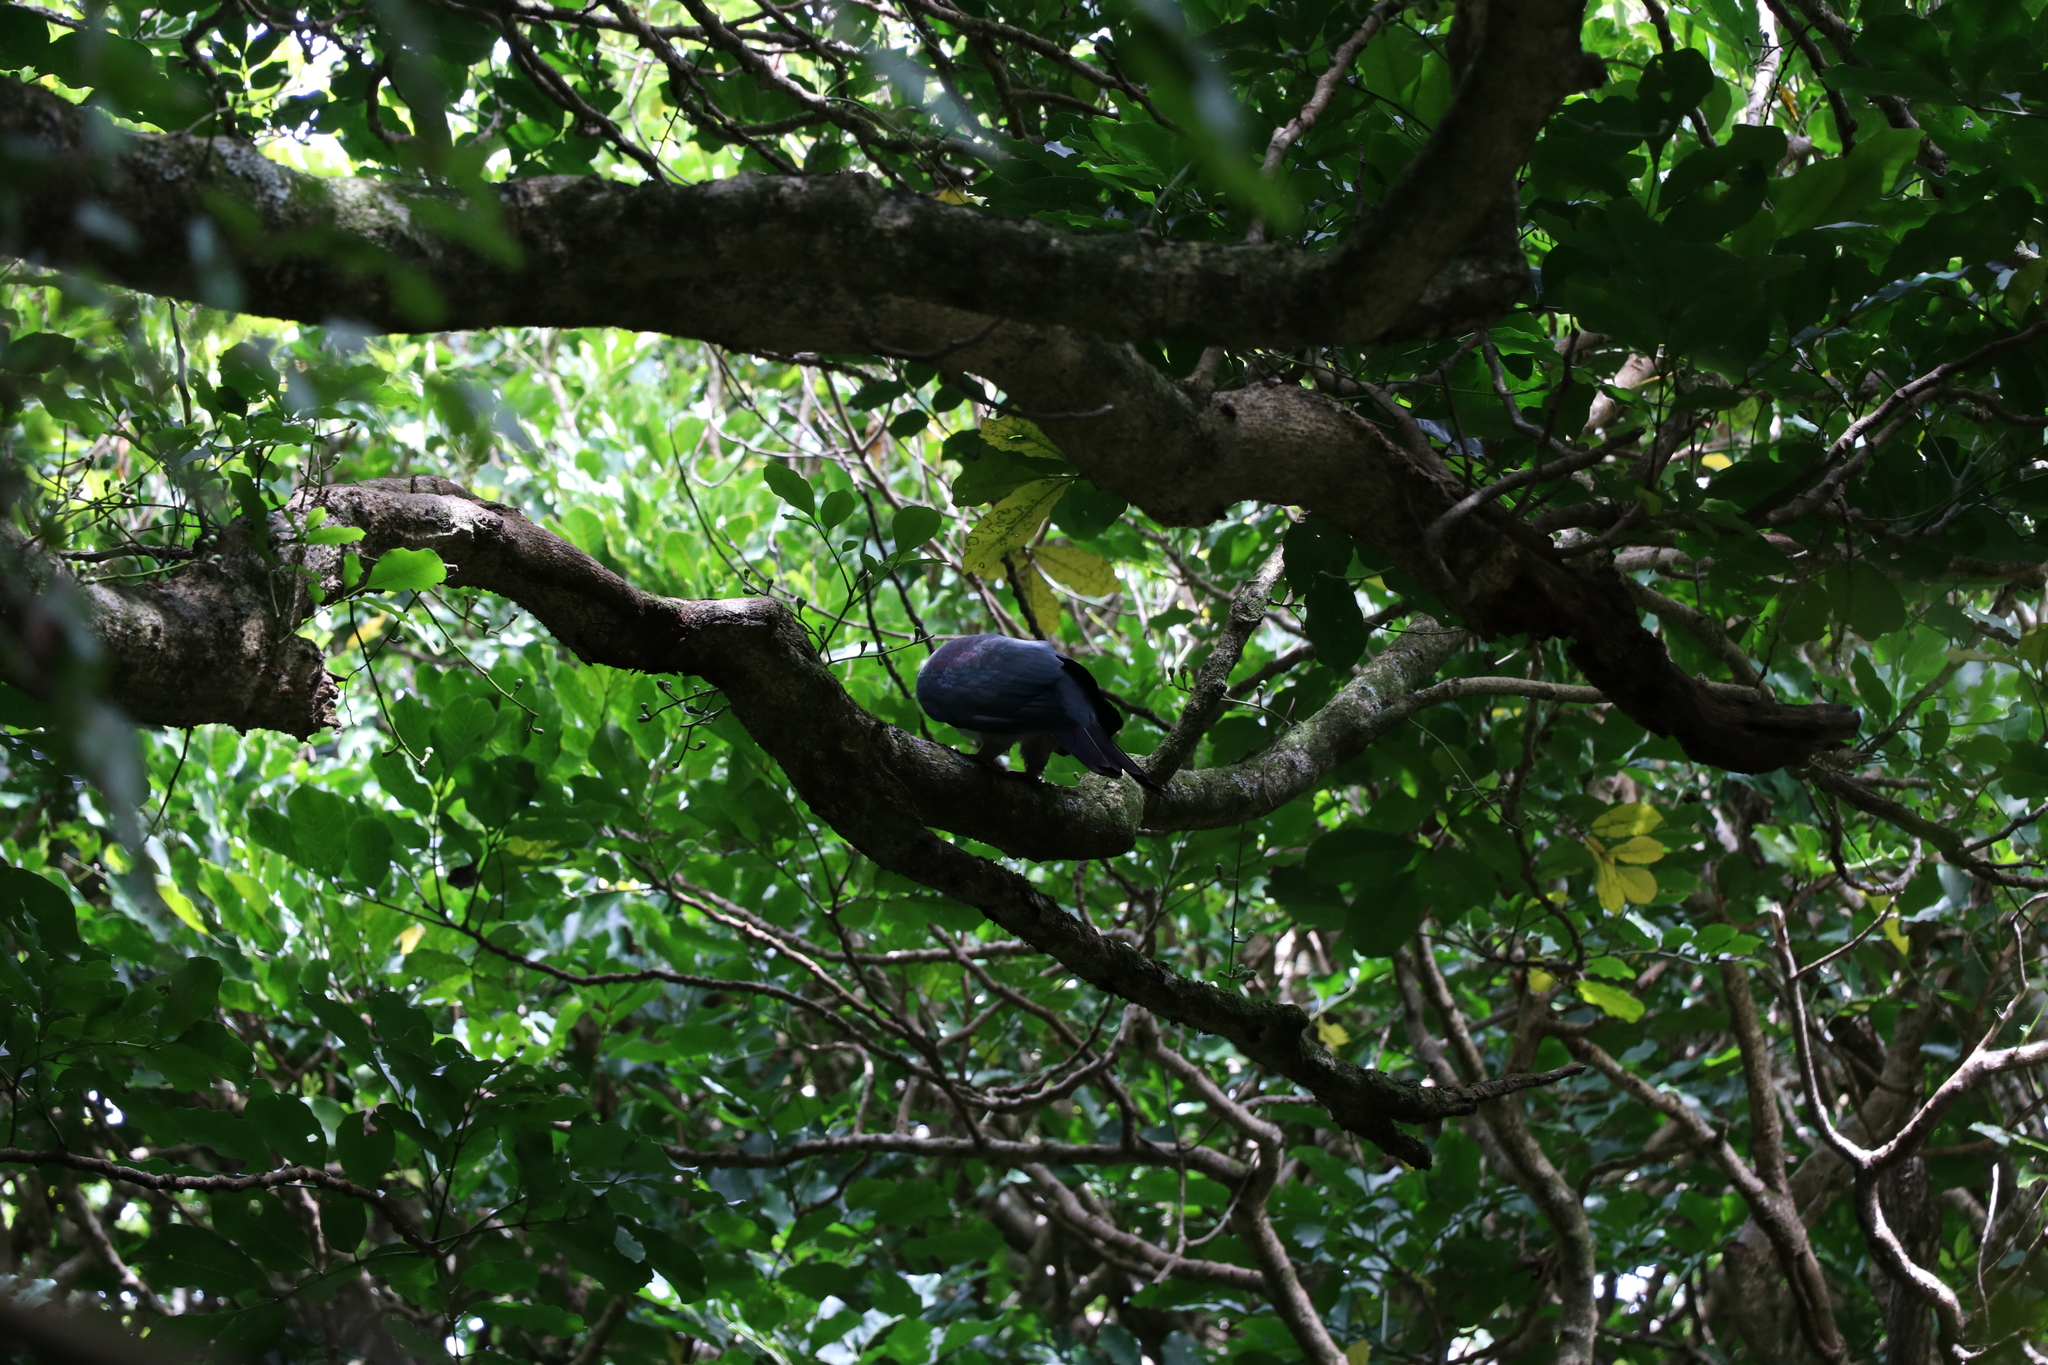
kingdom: Animalia
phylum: Chordata
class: Aves
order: Columbiformes
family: Columbidae
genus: Hemiphaga
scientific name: Hemiphaga novaeseelandiae
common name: New zealand pigeon
